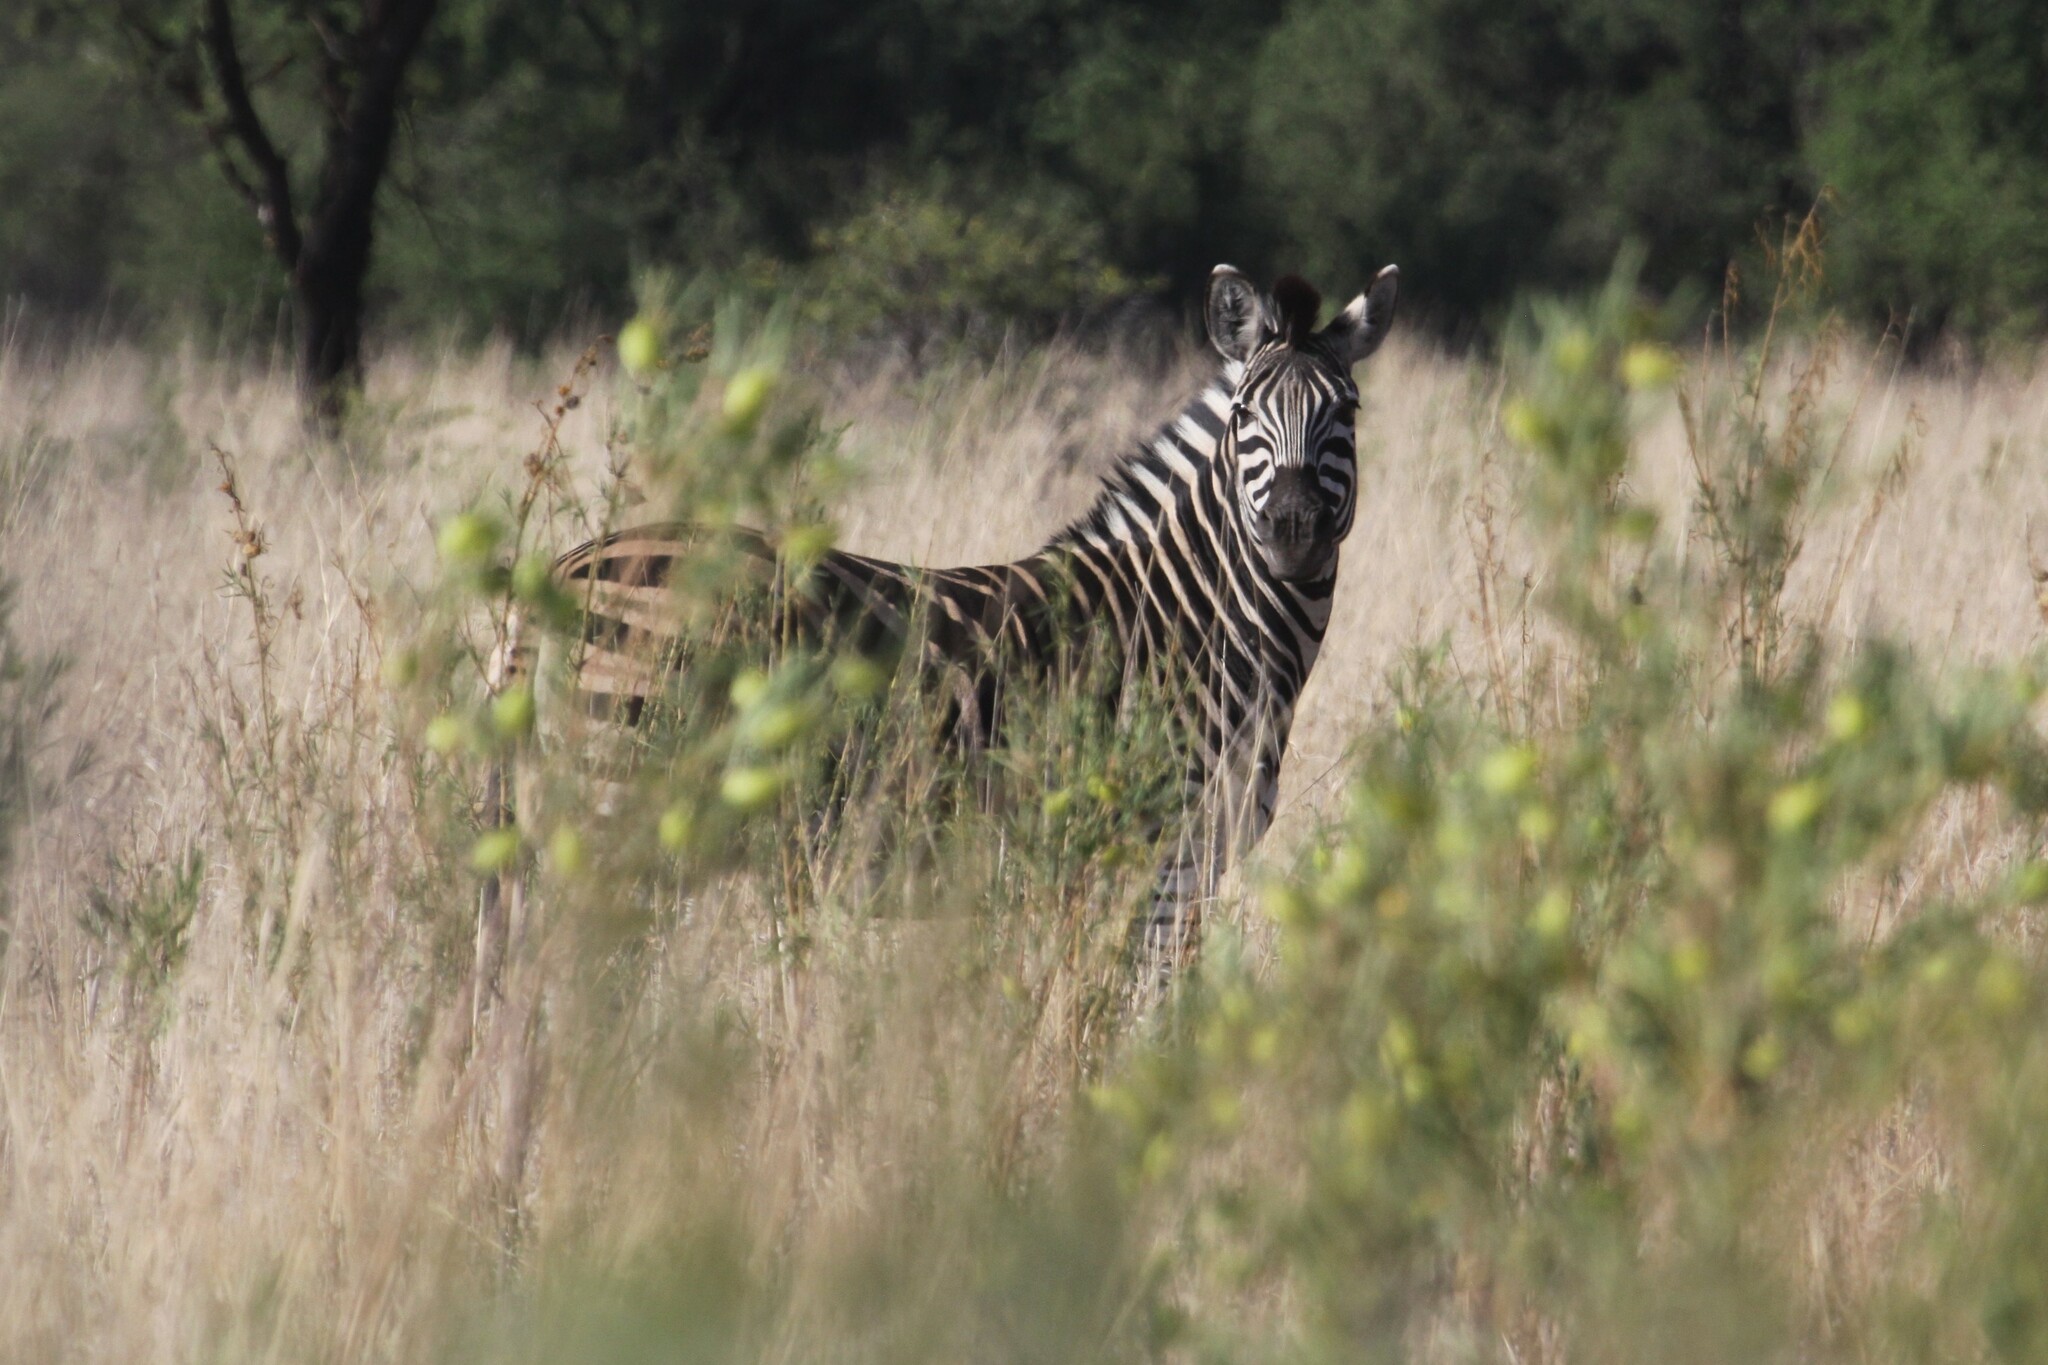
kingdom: Animalia
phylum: Chordata
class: Mammalia
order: Perissodactyla
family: Equidae
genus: Equus
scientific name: Equus quagga
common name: Plains zebra
